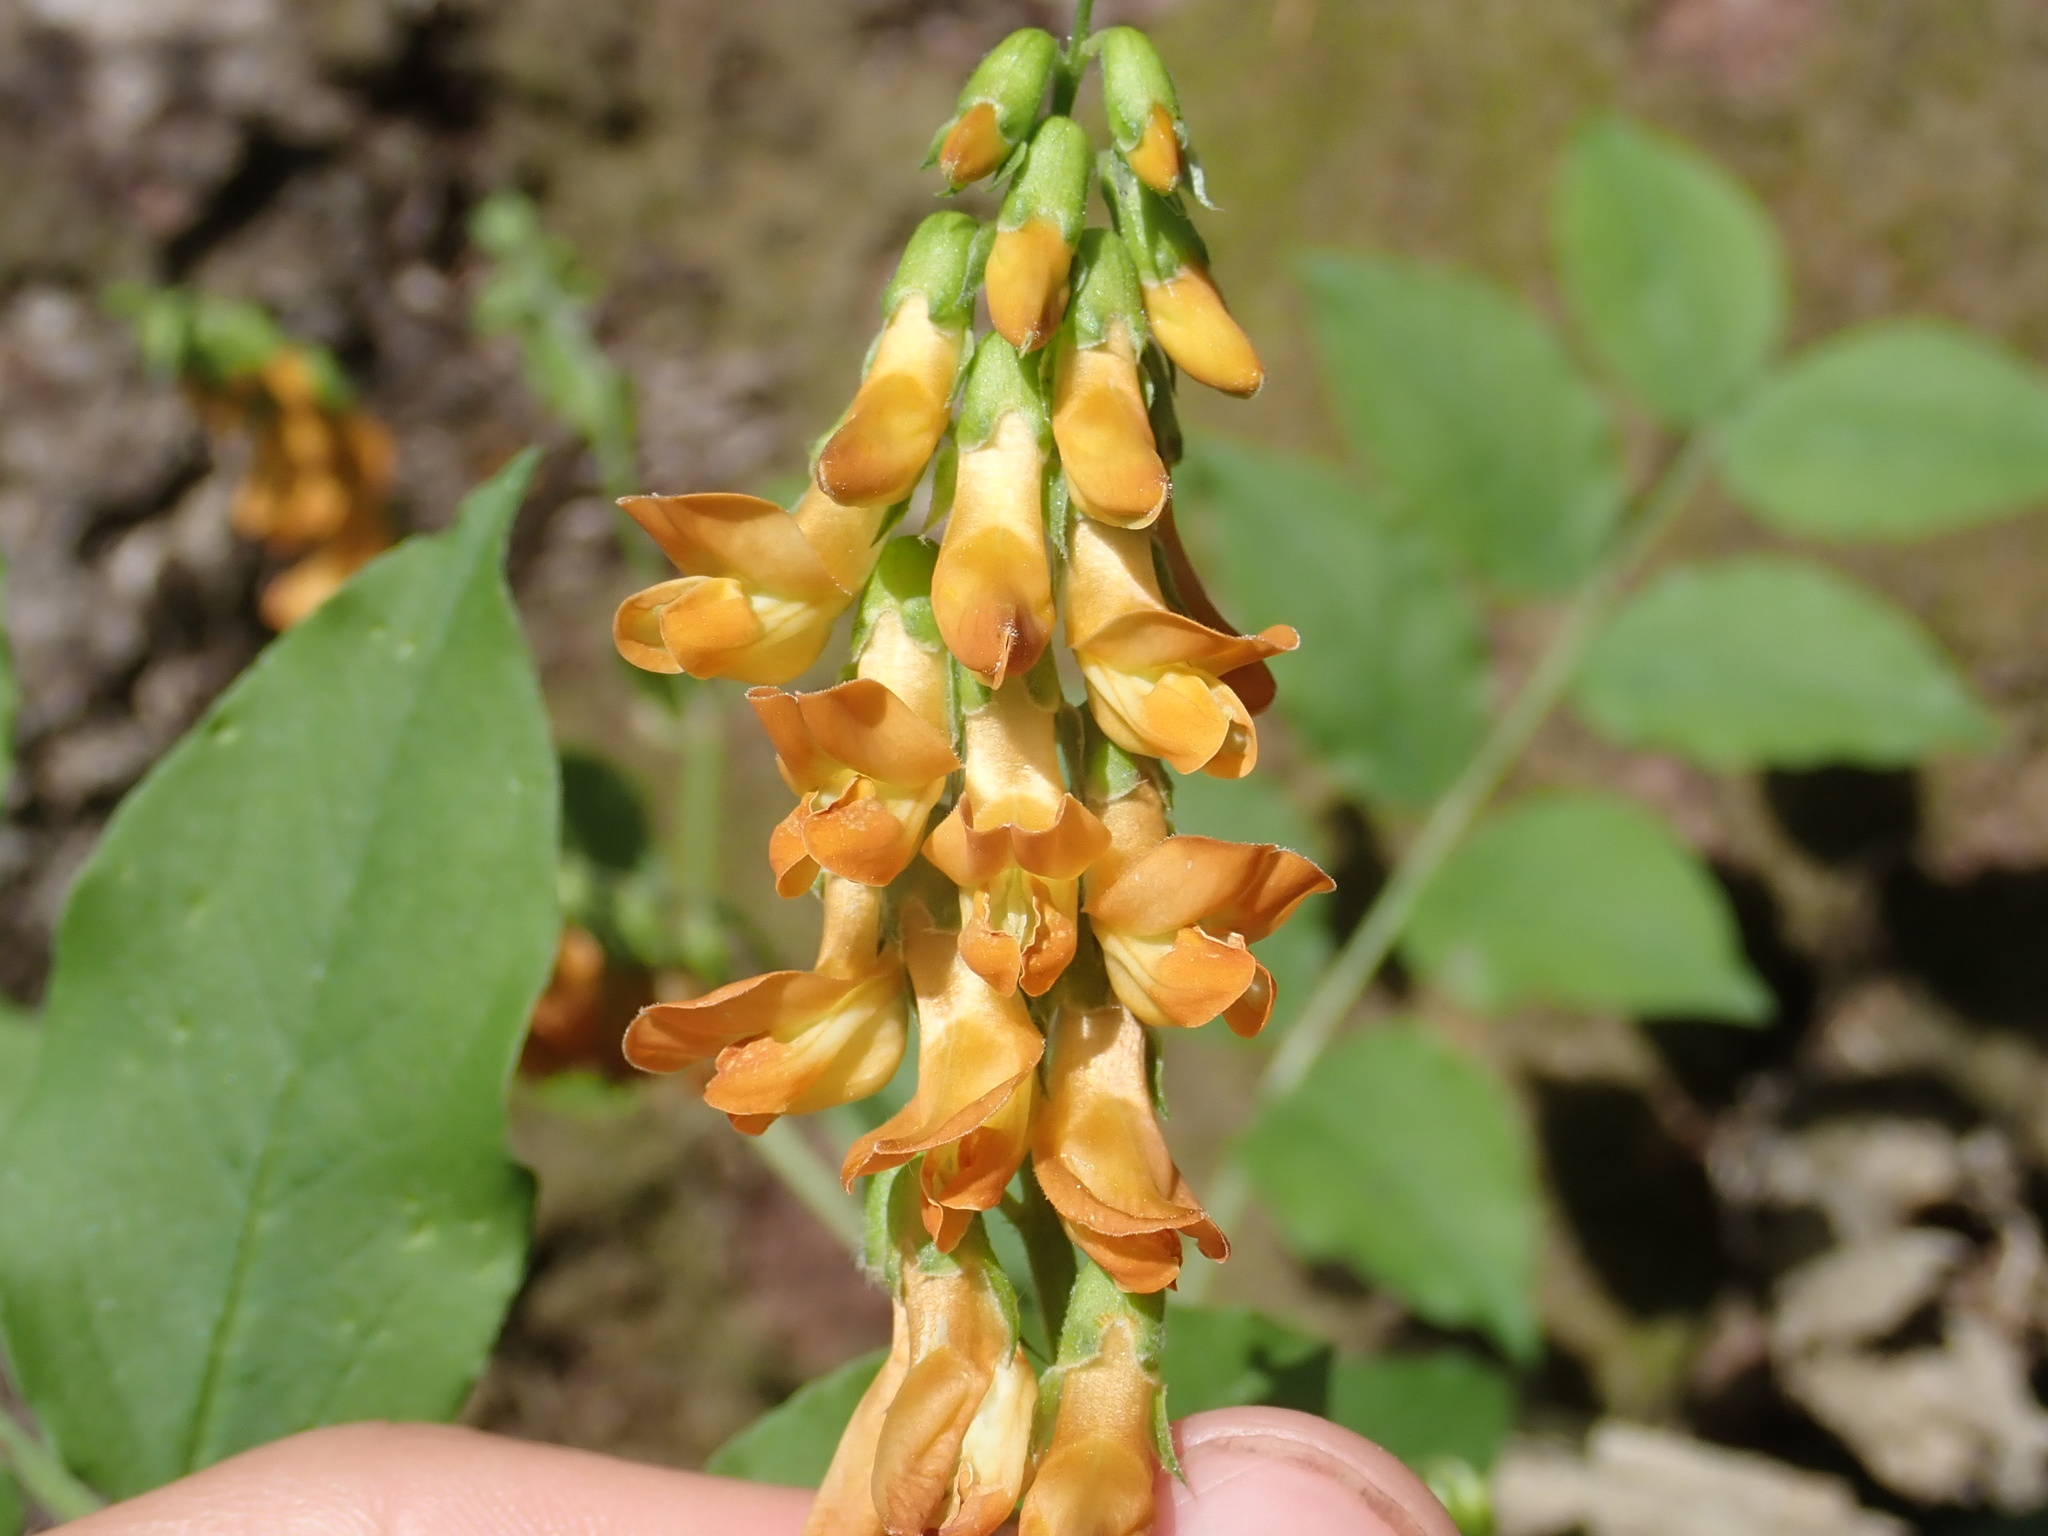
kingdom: Plantae
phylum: Tracheophyta
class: Magnoliopsida
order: Fabales
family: Fabaceae
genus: Lathyrus
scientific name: Lathyrus aureus
